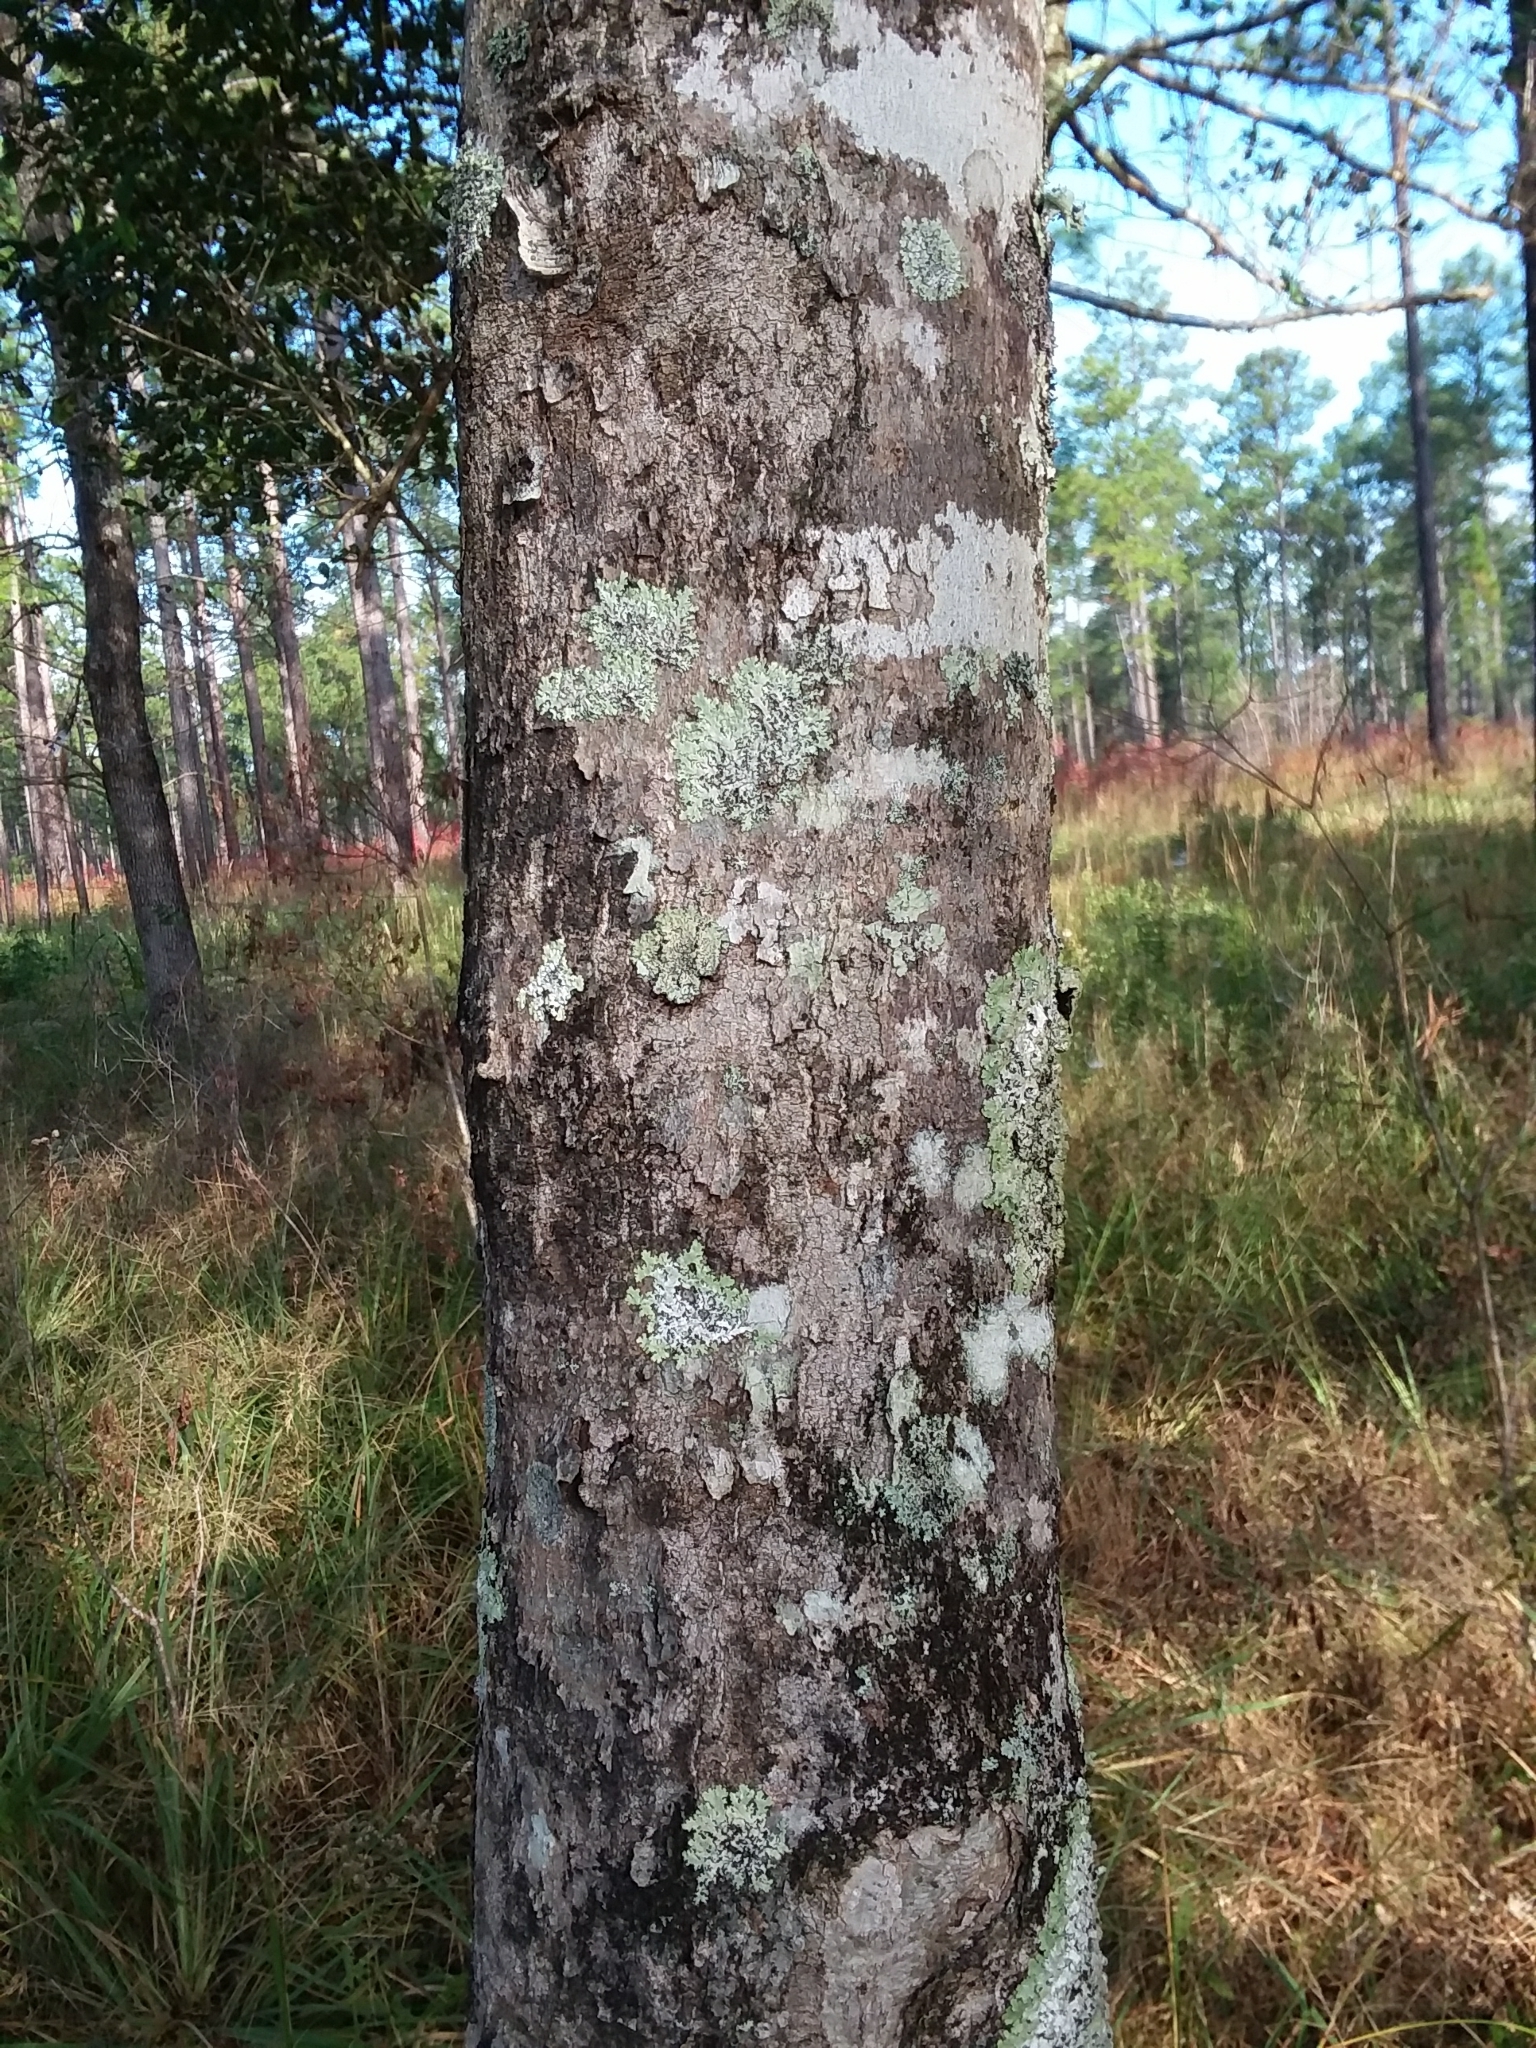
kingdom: Plantae
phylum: Tracheophyta
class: Magnoliopsida
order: Aquifoliales
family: Aquifoliaceae
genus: Ilex
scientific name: Ilex opaca
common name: American holly
